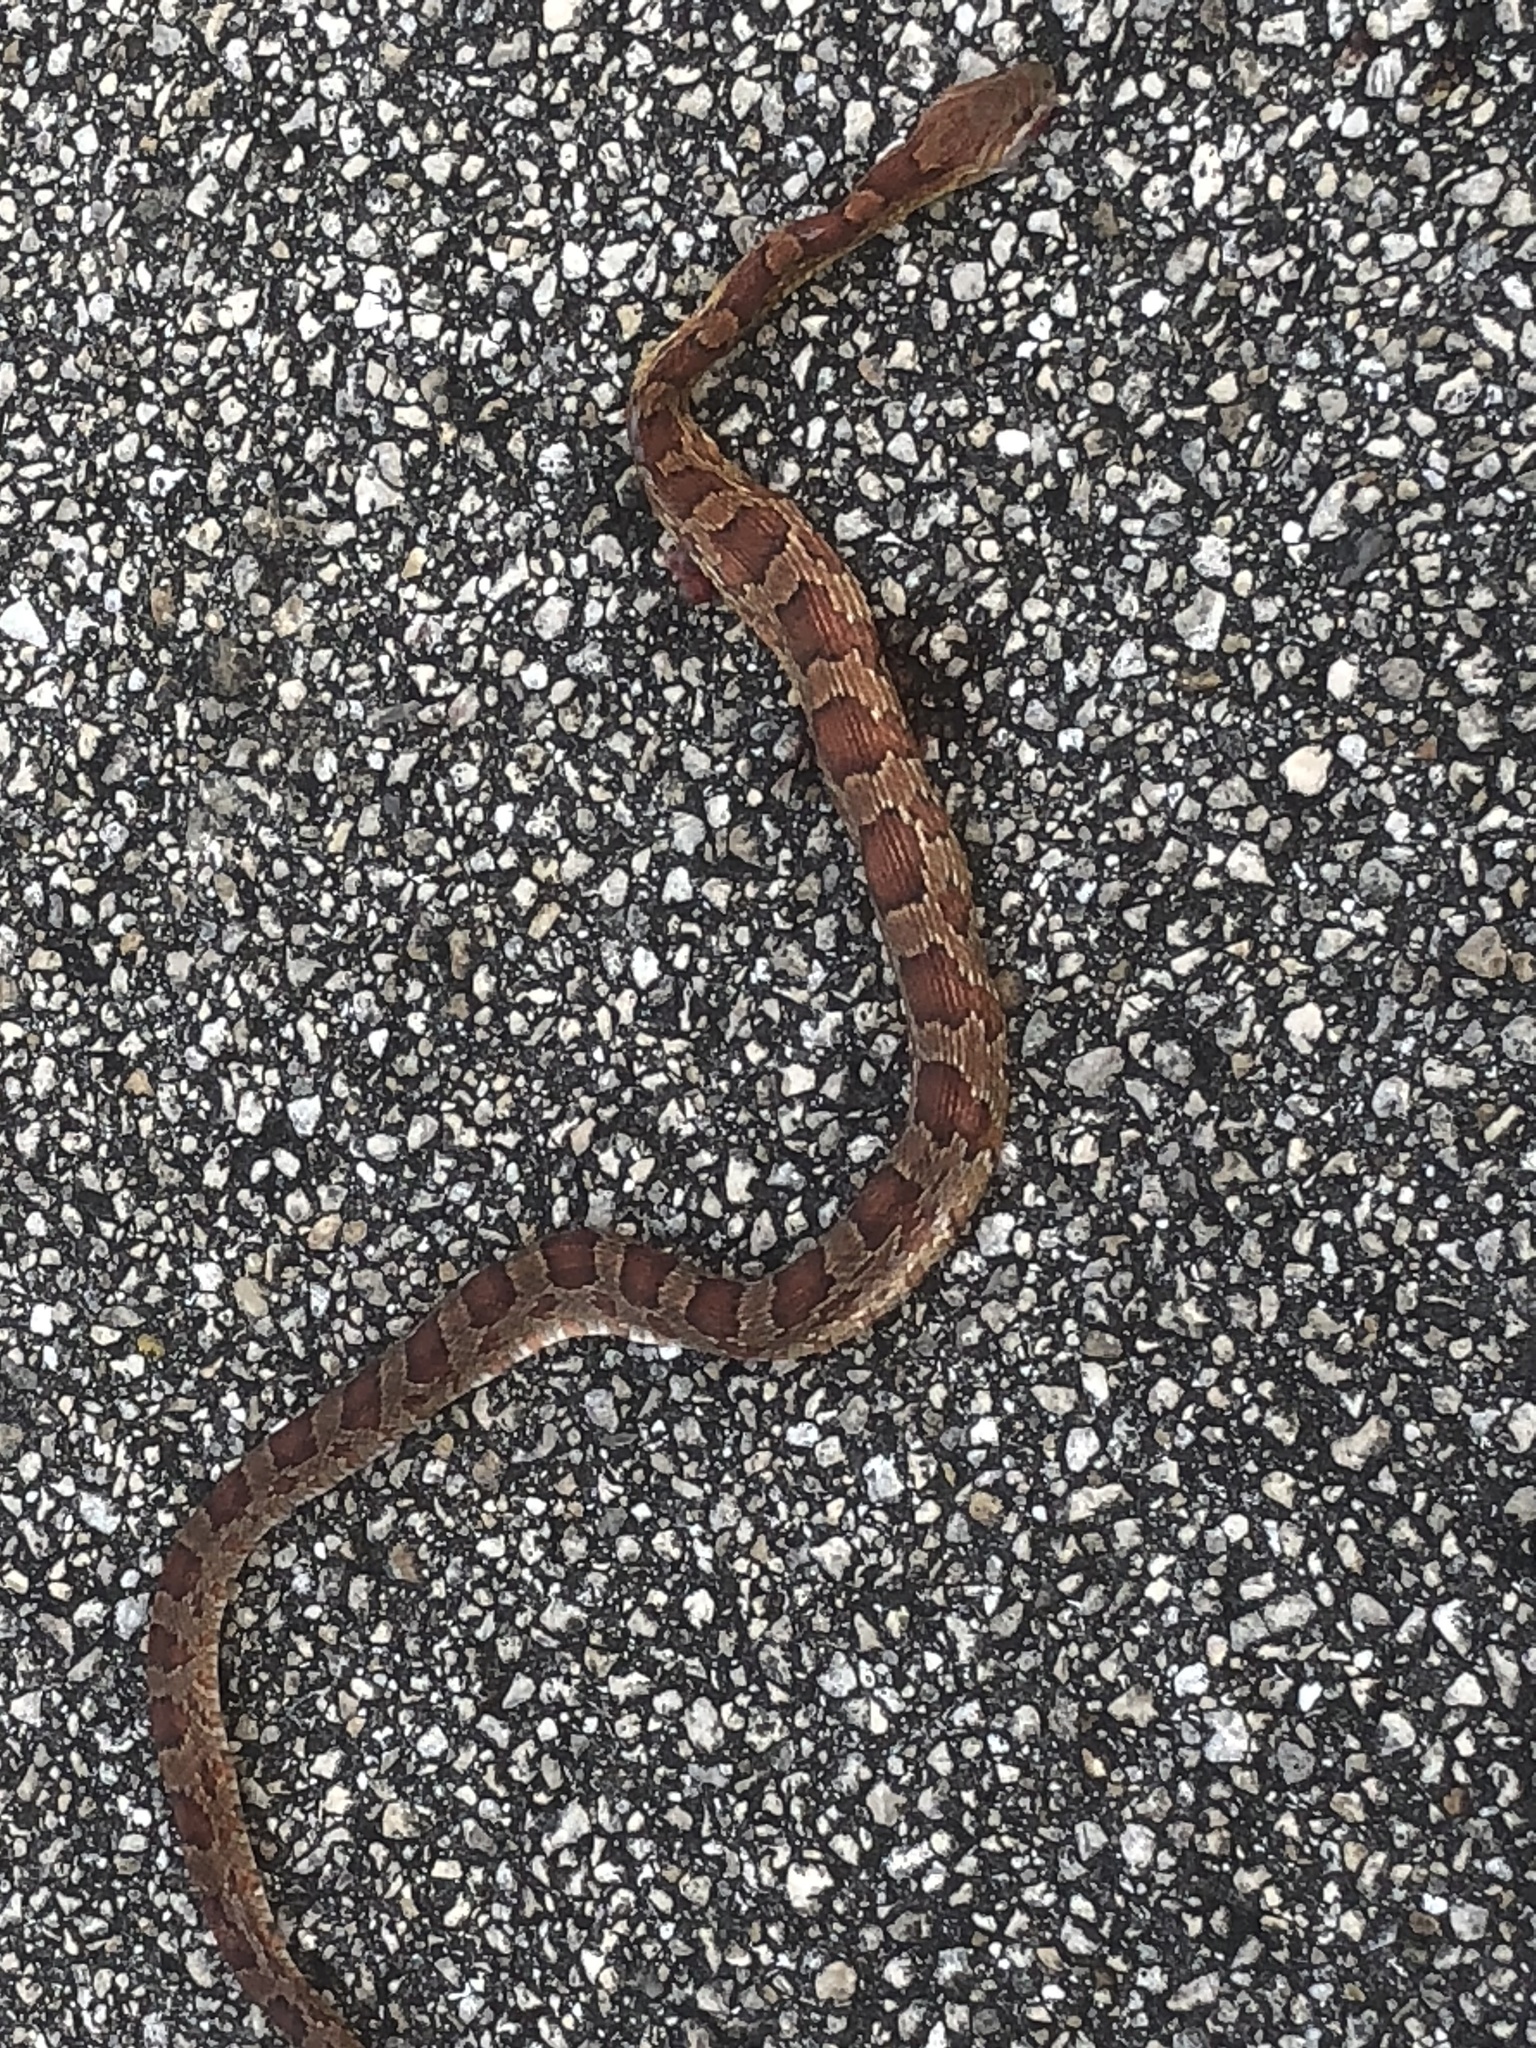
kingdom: Animalia
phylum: Chordata
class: Squamata
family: Colubridae
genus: Pantherophis
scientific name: Pantherophis guttatus
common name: Red cornsnake
